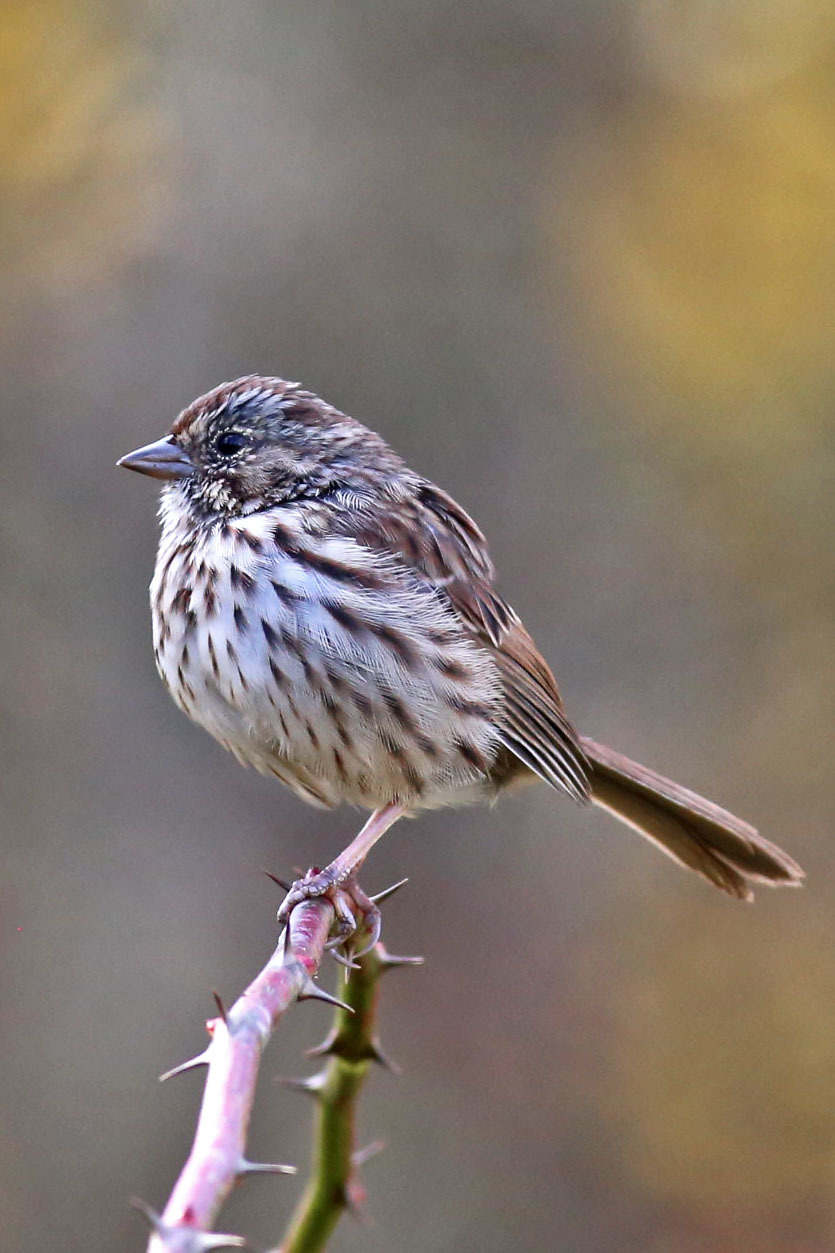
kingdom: Animalia
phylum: Chordata
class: Aves
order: Passeriformes
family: Passerellidae
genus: Melospiza
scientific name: Melospiza melodia
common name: Song sparrow
